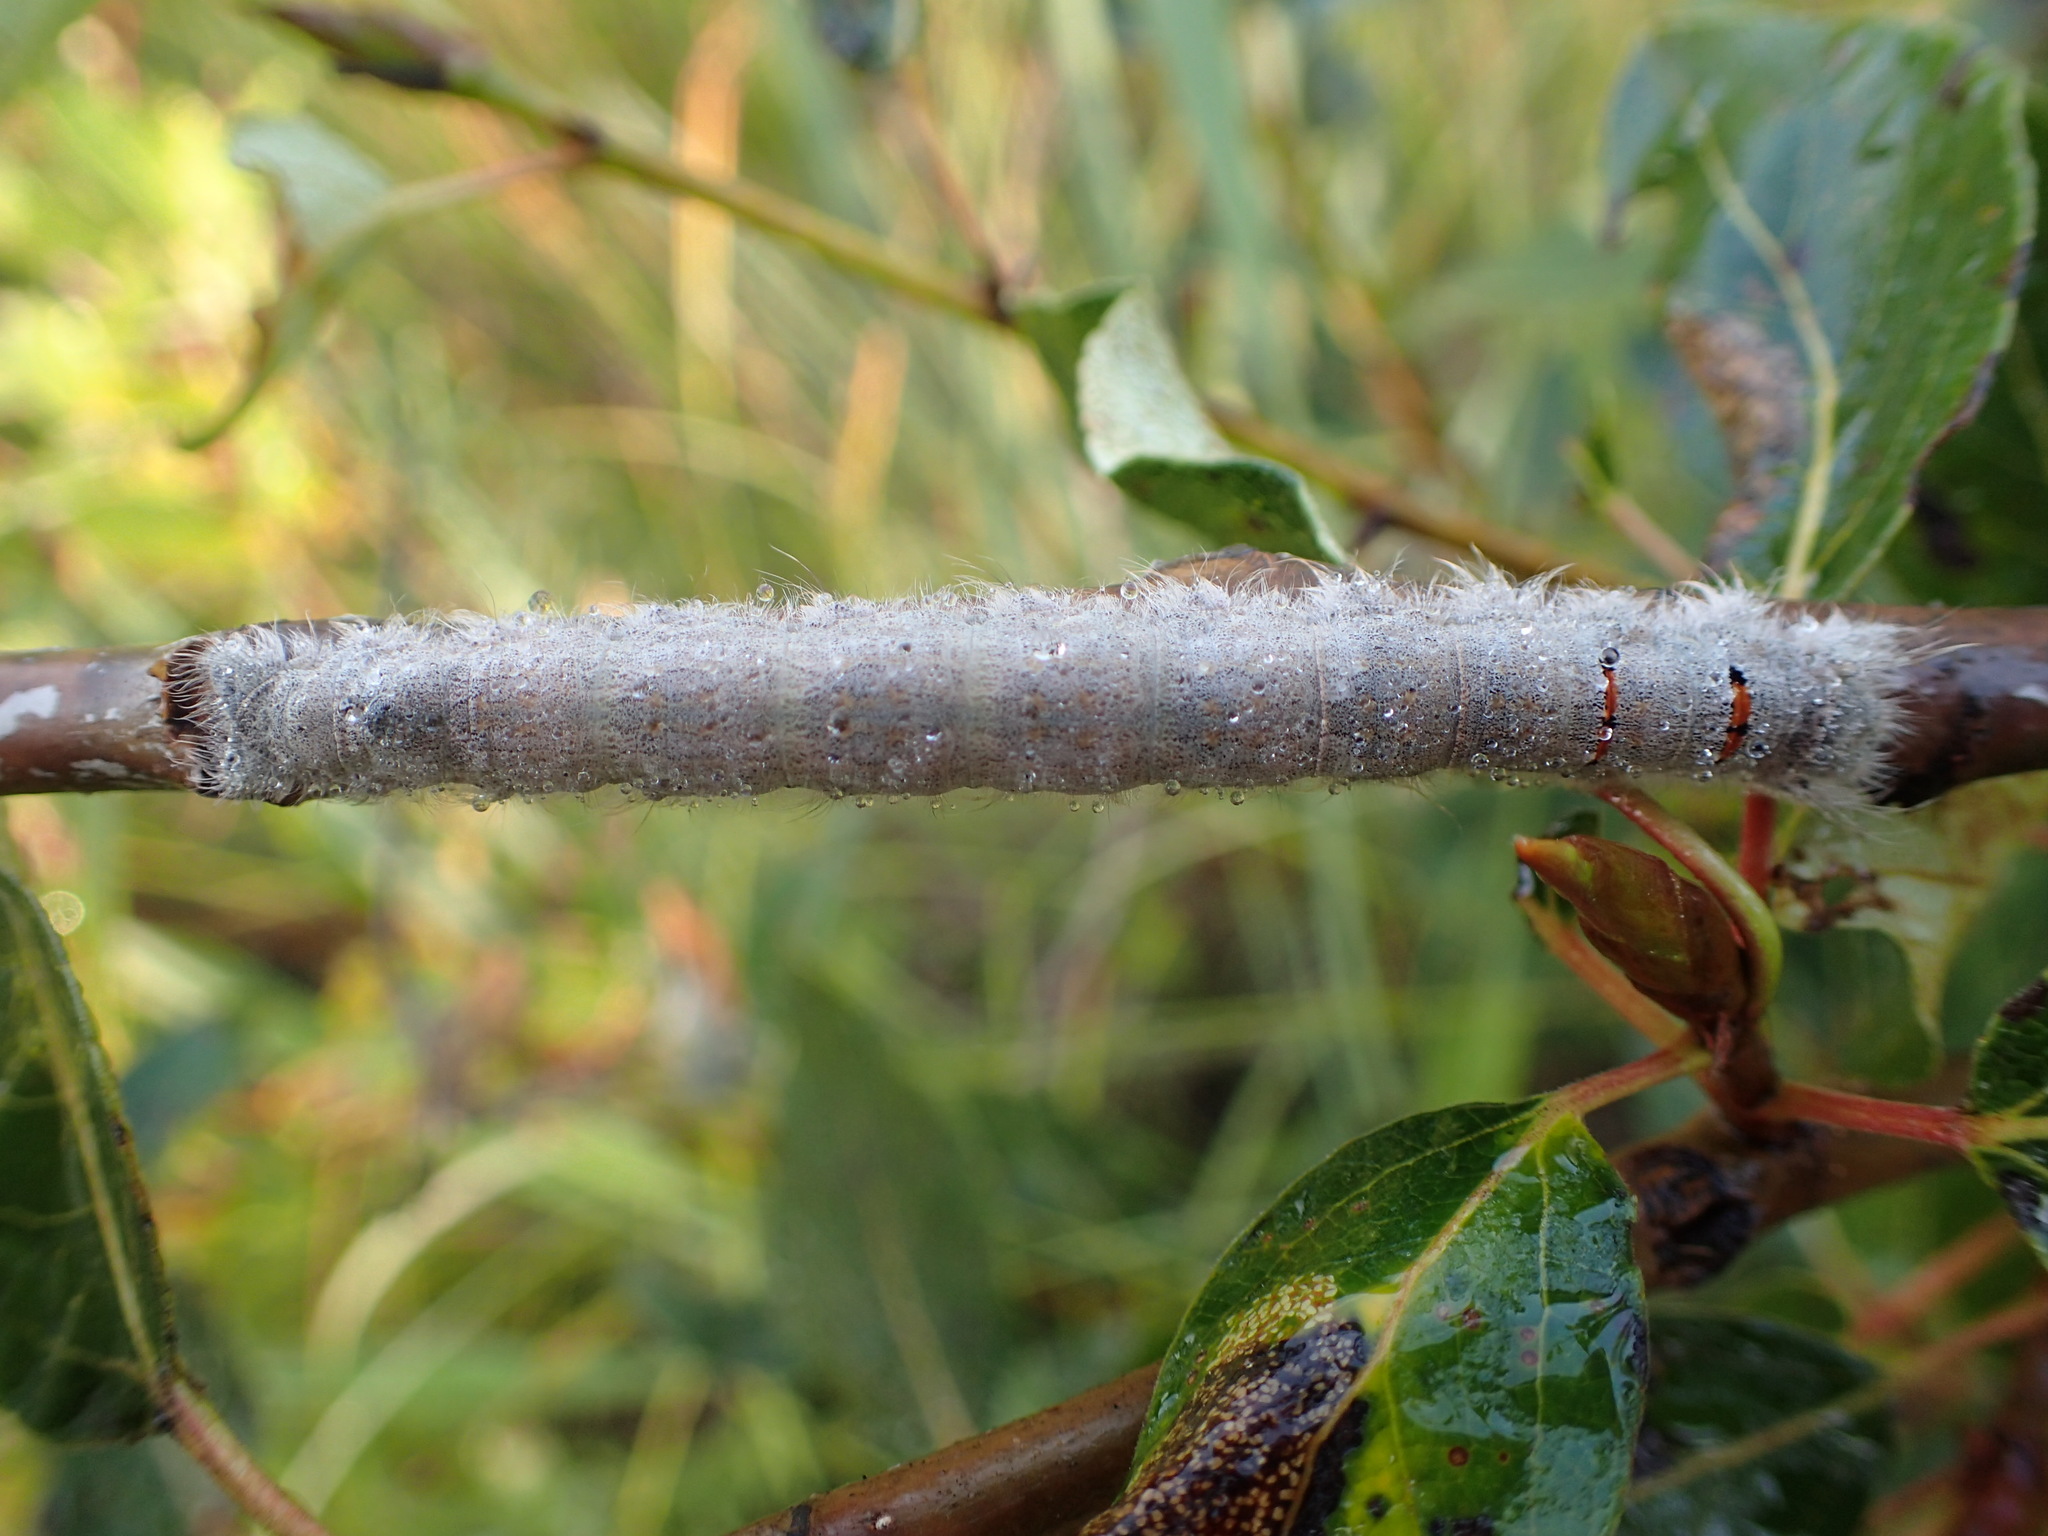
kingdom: Animalia
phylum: Arthropoda
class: Insecta
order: Lepidoptera
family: Lasiocampidae
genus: Phyllodesma
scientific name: Phyllodesma americana
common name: American lappet moth
